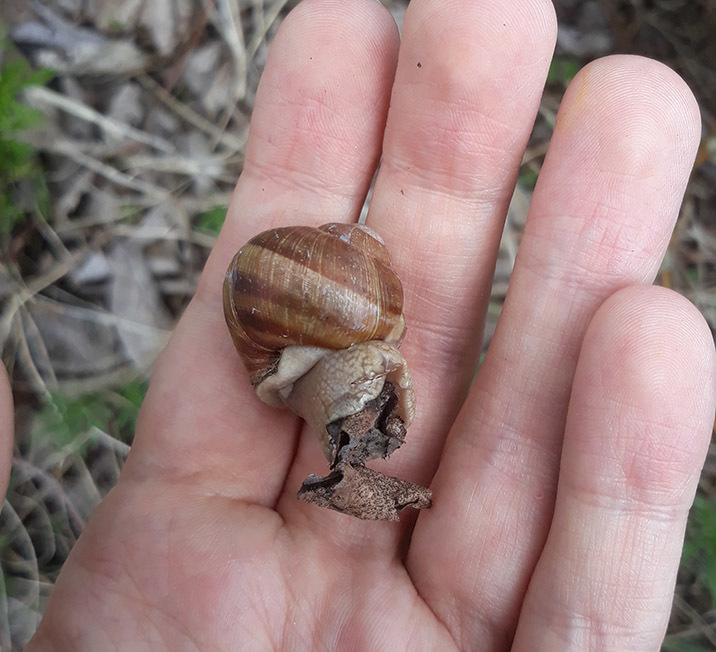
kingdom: Animalia
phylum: Mollusca
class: Gastropoda
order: Stylommatophora
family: Helicidae
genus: Helix
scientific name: Helix pomatia
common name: Roman snail
